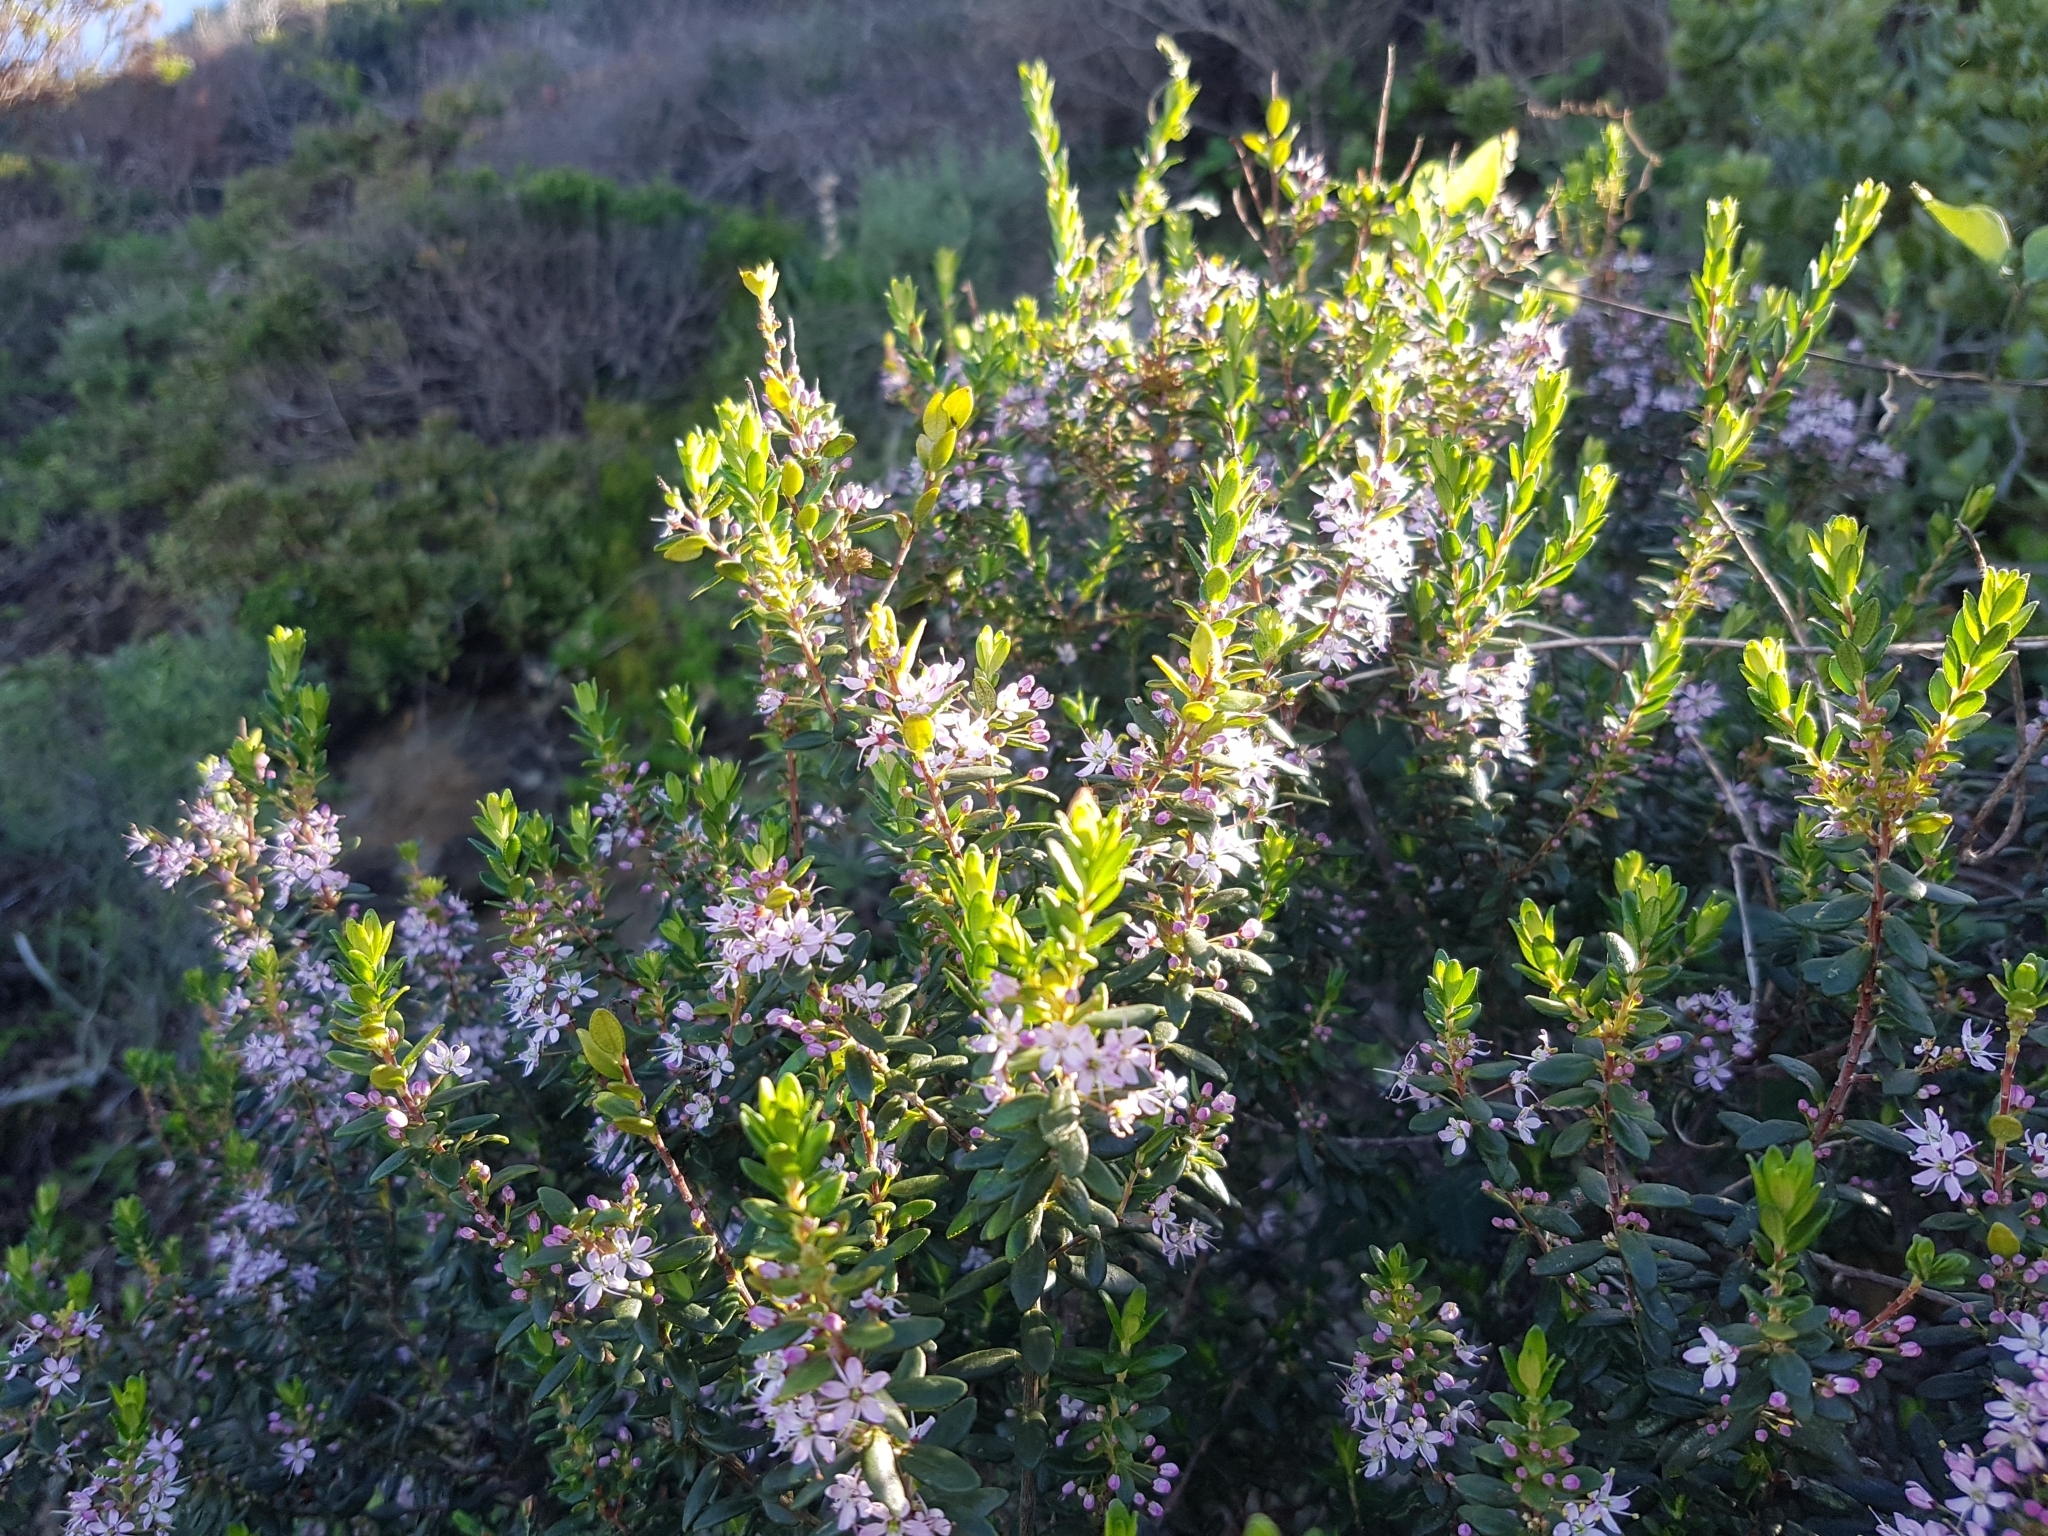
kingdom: Plantae
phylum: Tracheophyta
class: Magnoliopsida
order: Sapindales
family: Rutaceae
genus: Agathosma
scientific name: Agathosma ovata
